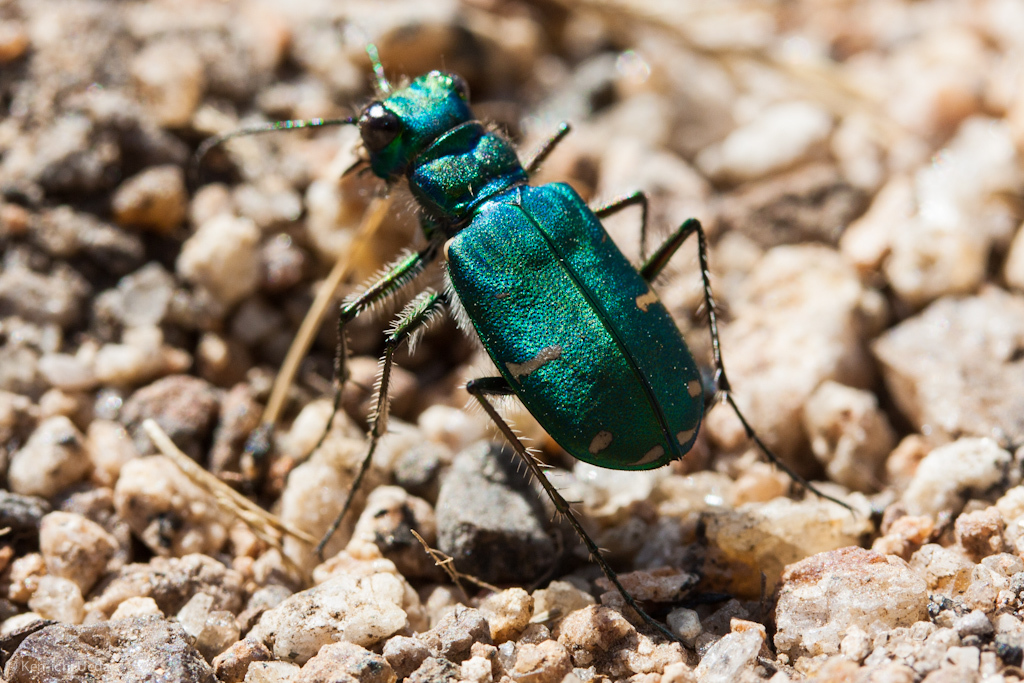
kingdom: Animalia
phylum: Arthropoda
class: Insecta
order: Coleoptera
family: Carabidae
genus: Cicindela
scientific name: Cicindela tranquebarica
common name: Oblique-lined tiger beetle
